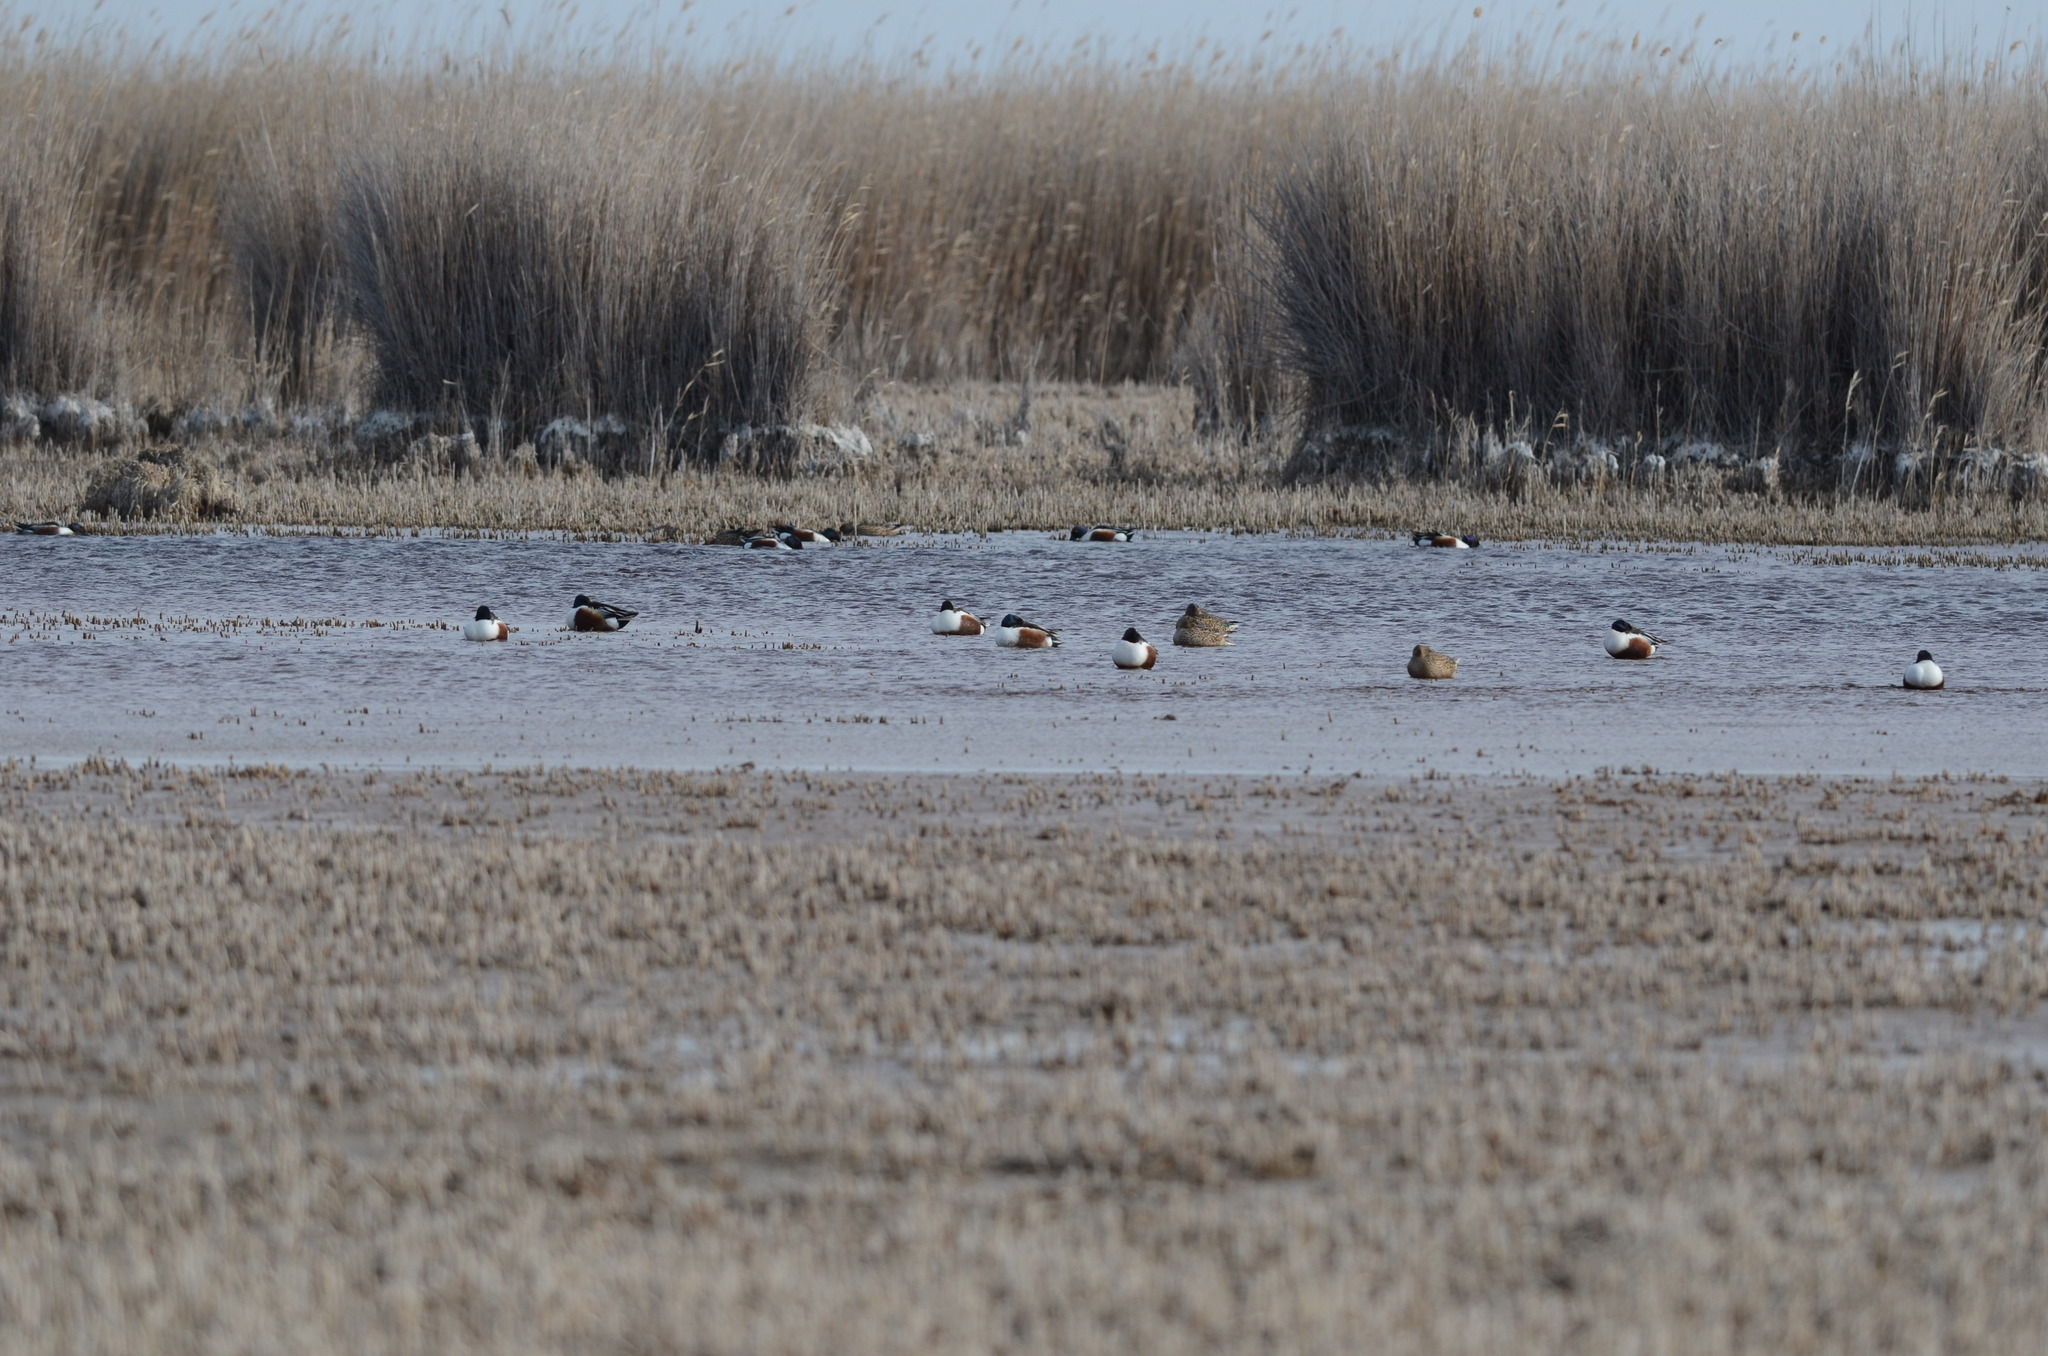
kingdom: Animalia
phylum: Chordata
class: Aves
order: Anseriformes
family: Anatidae
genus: Spatula
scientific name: Spatula clypeata
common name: Northern shoveler
